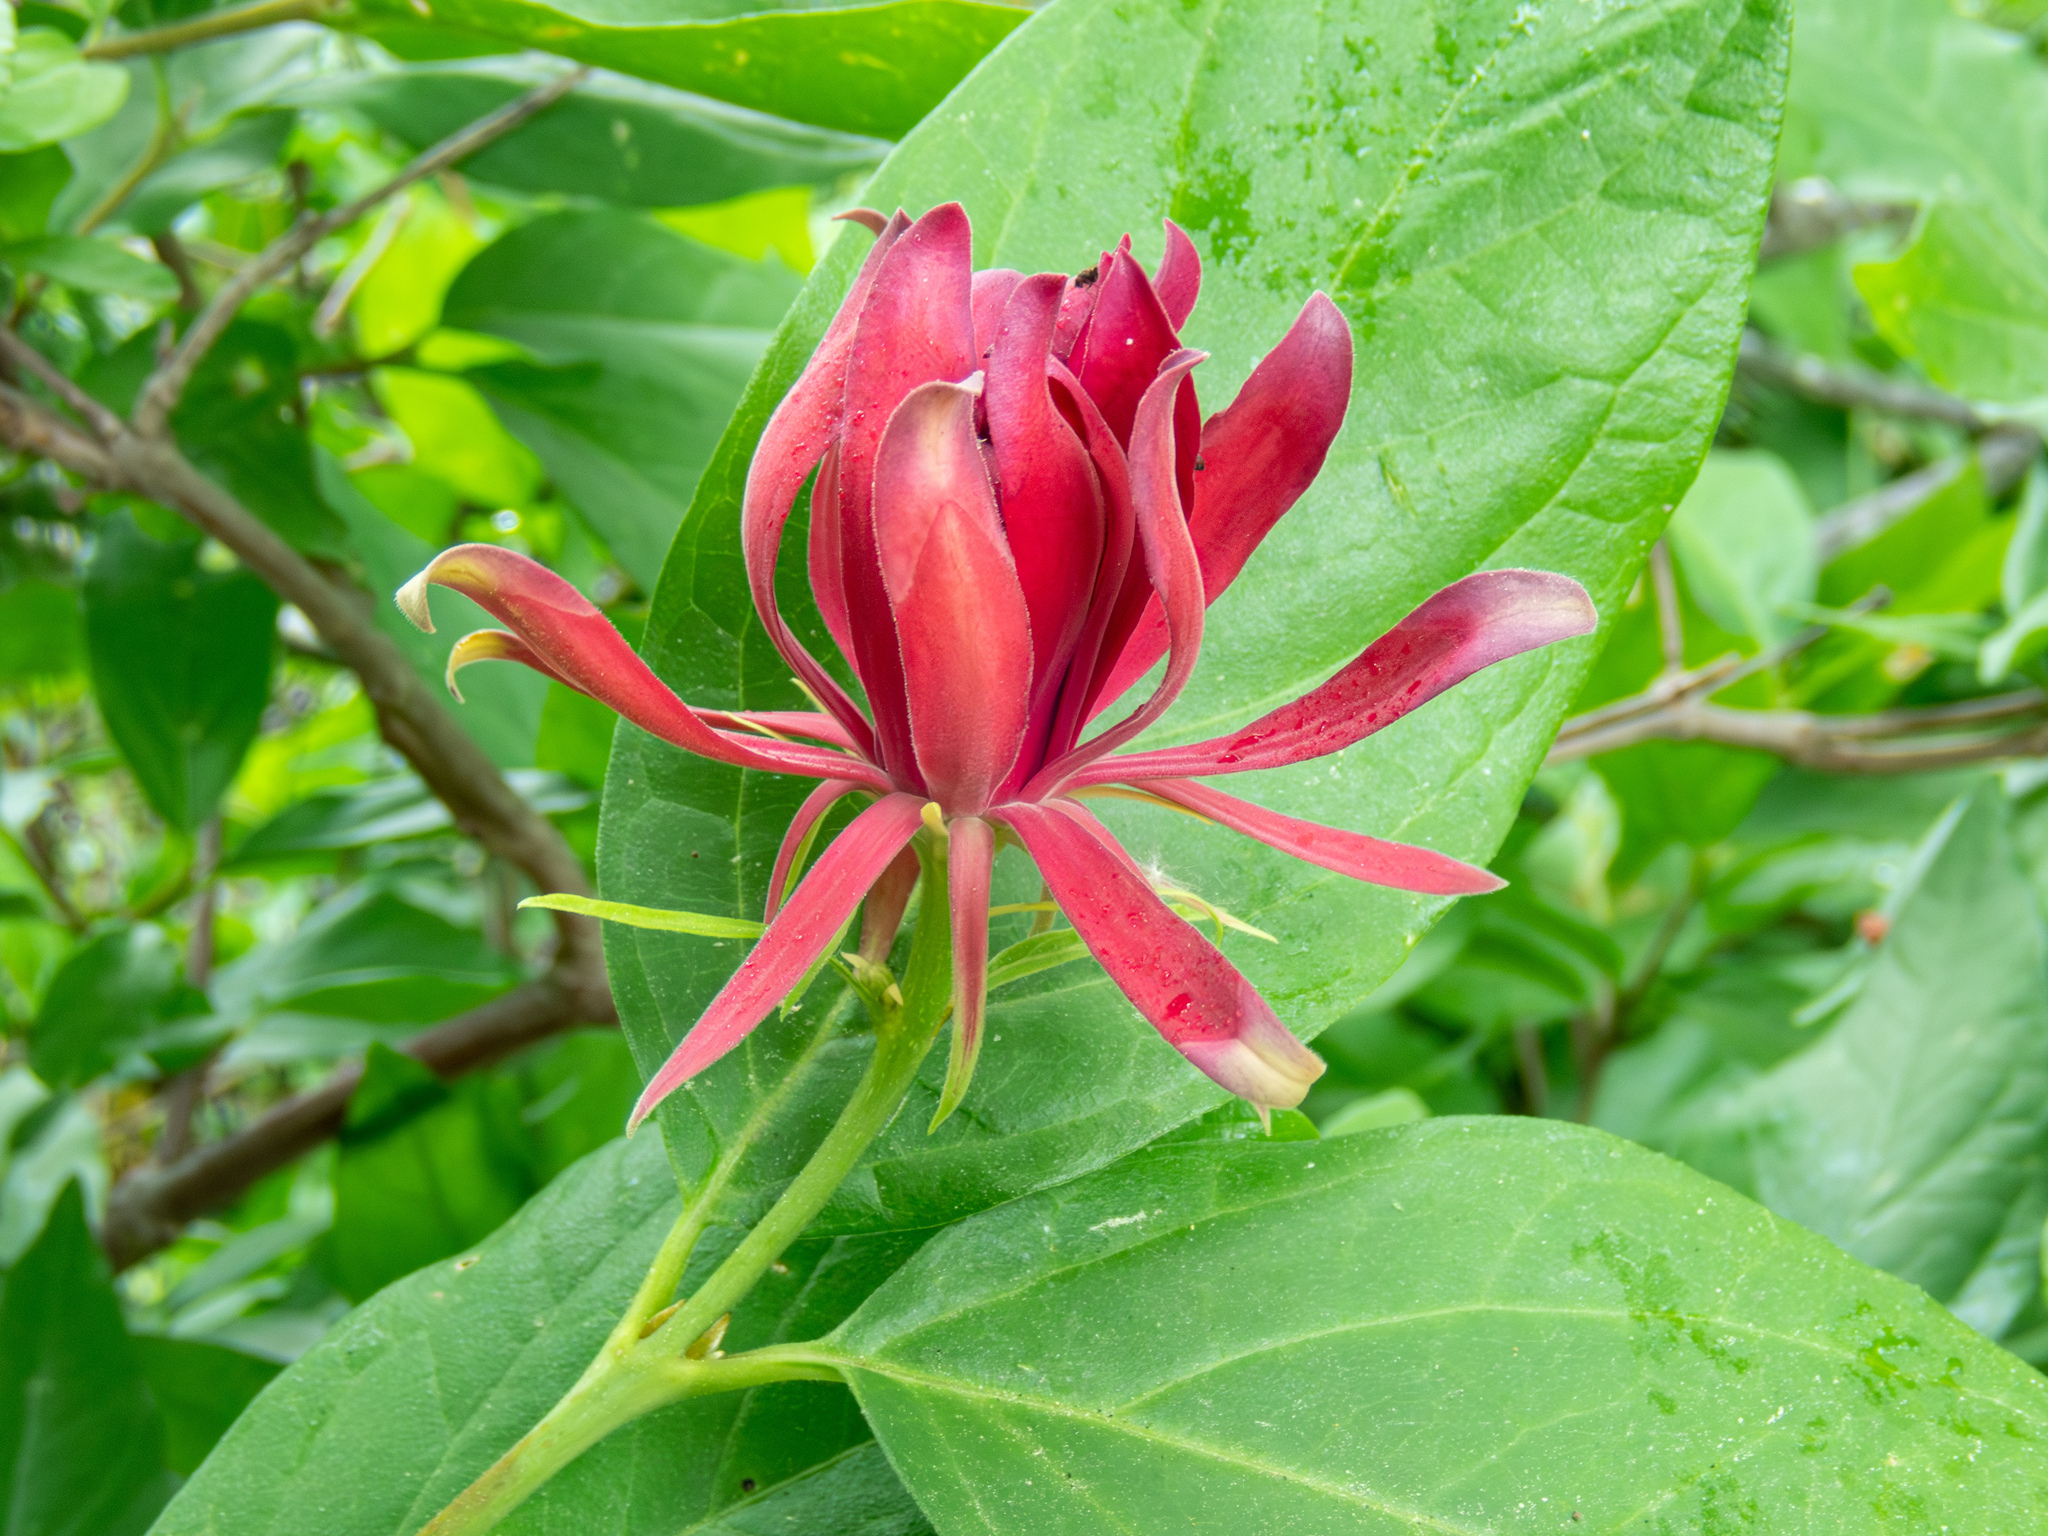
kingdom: Plantae
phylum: Tracheophyta
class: Magnoliopsida
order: Laurales
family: Calycanthaceae
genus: Calycanthus
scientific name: Calycanthus occidentalis
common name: California spicebush
